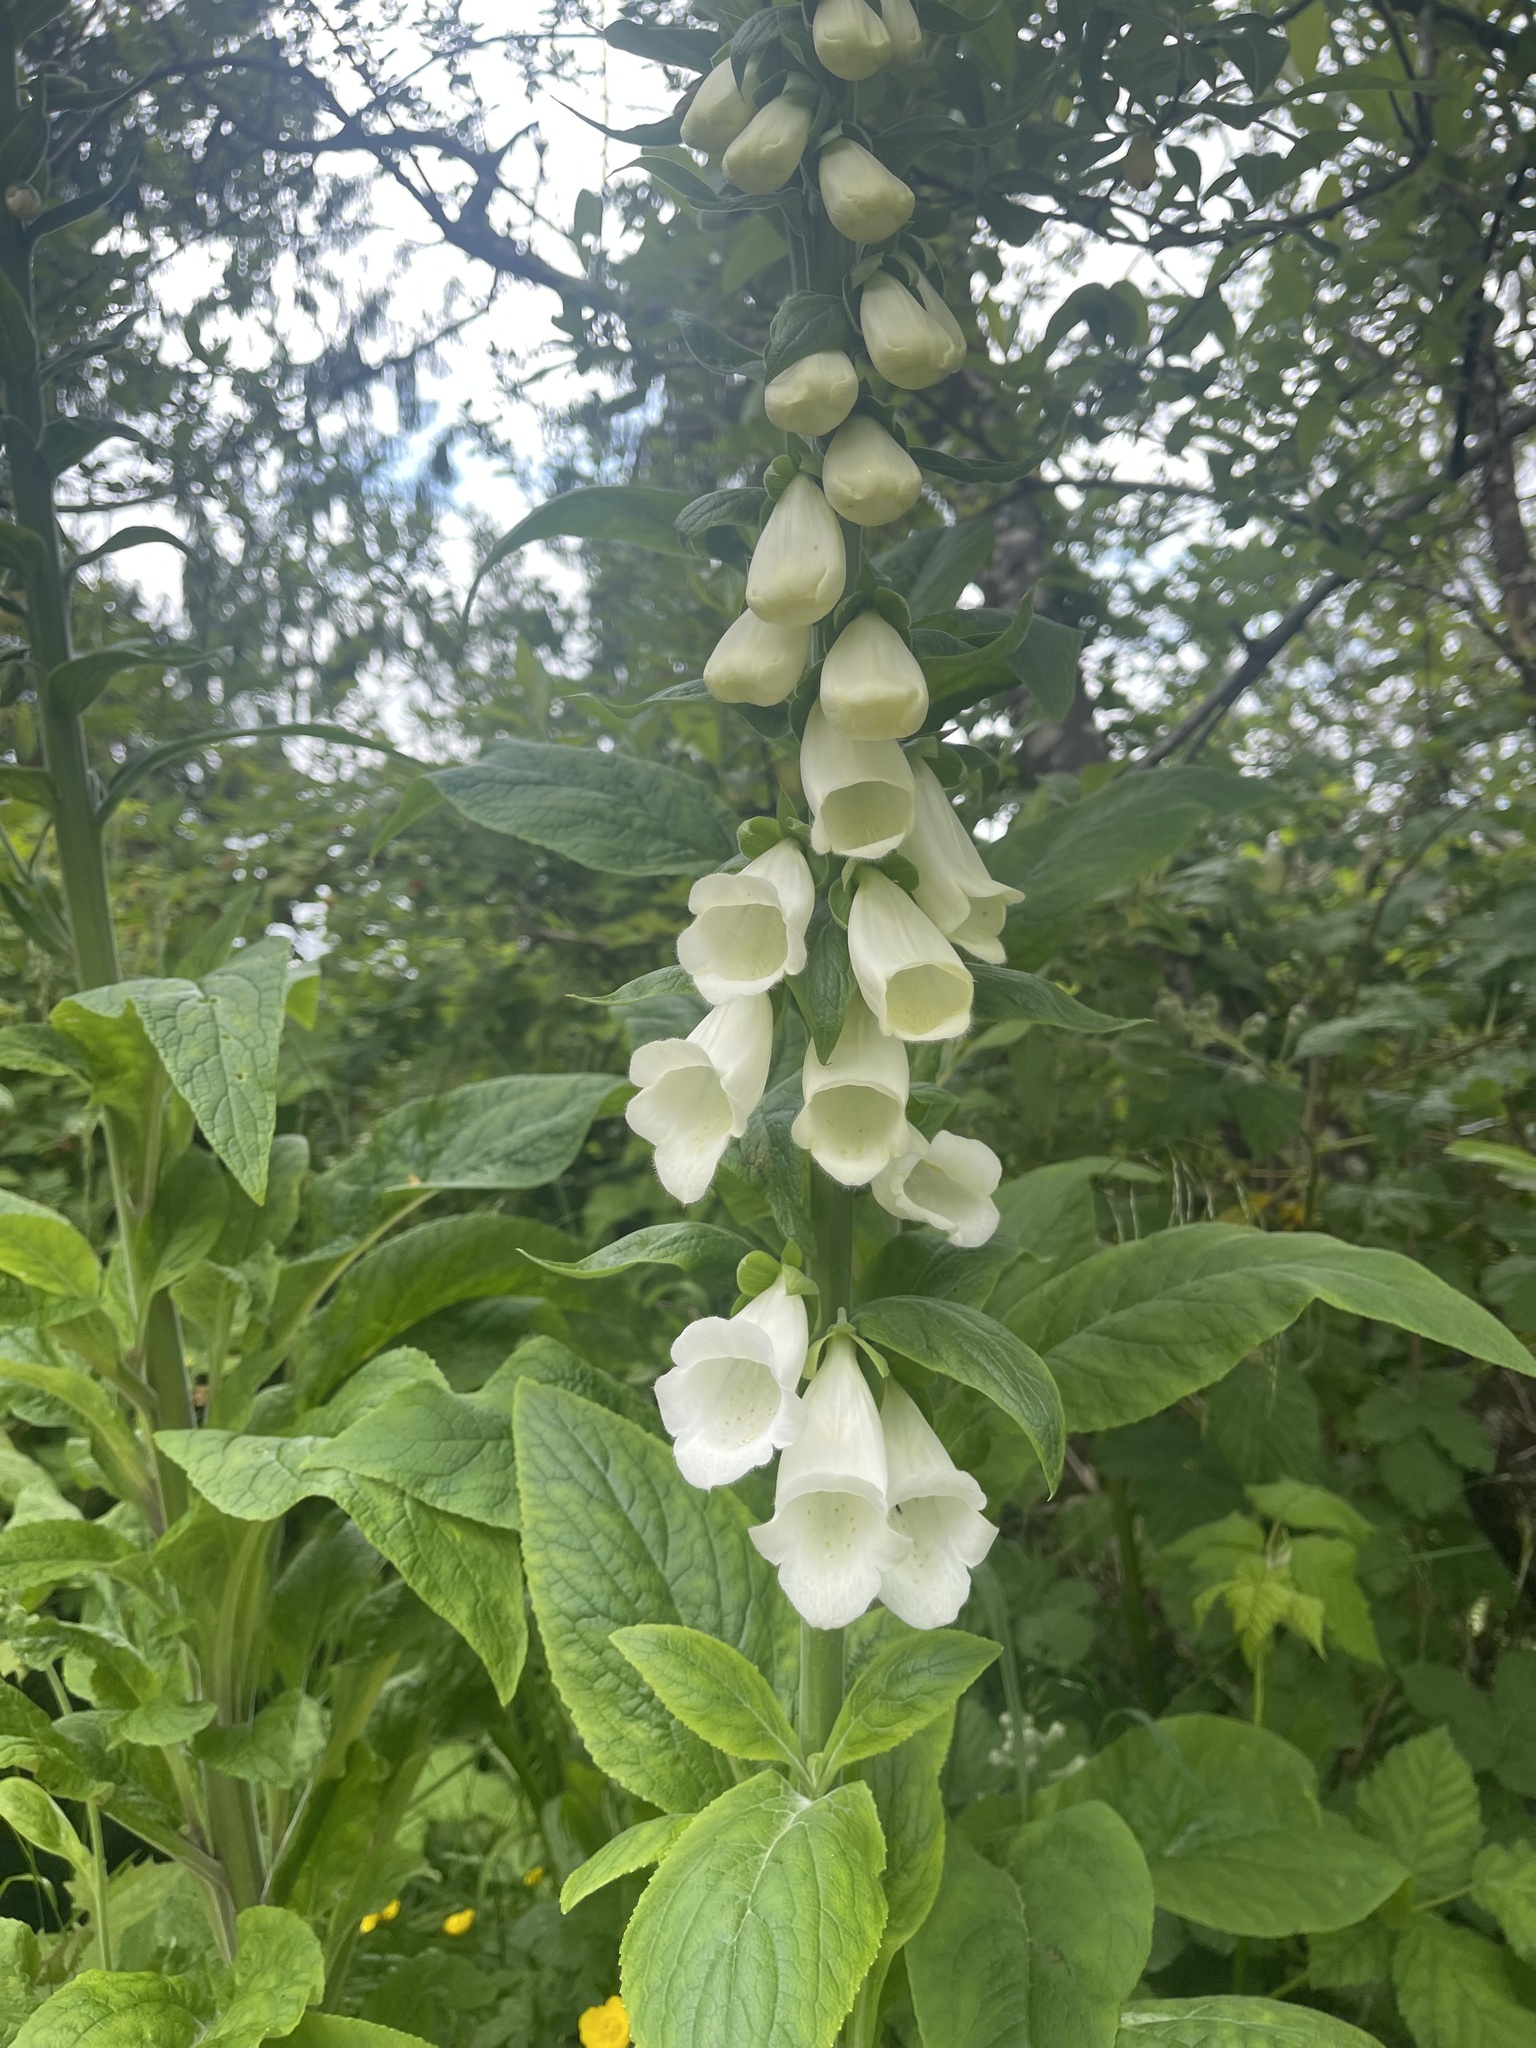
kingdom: Plantae
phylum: Tracheophyta
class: Magnoliopsida
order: Lamiales
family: Plantaginaceae
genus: Digitalis
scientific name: Digitalis purpurea
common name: Foxglove
